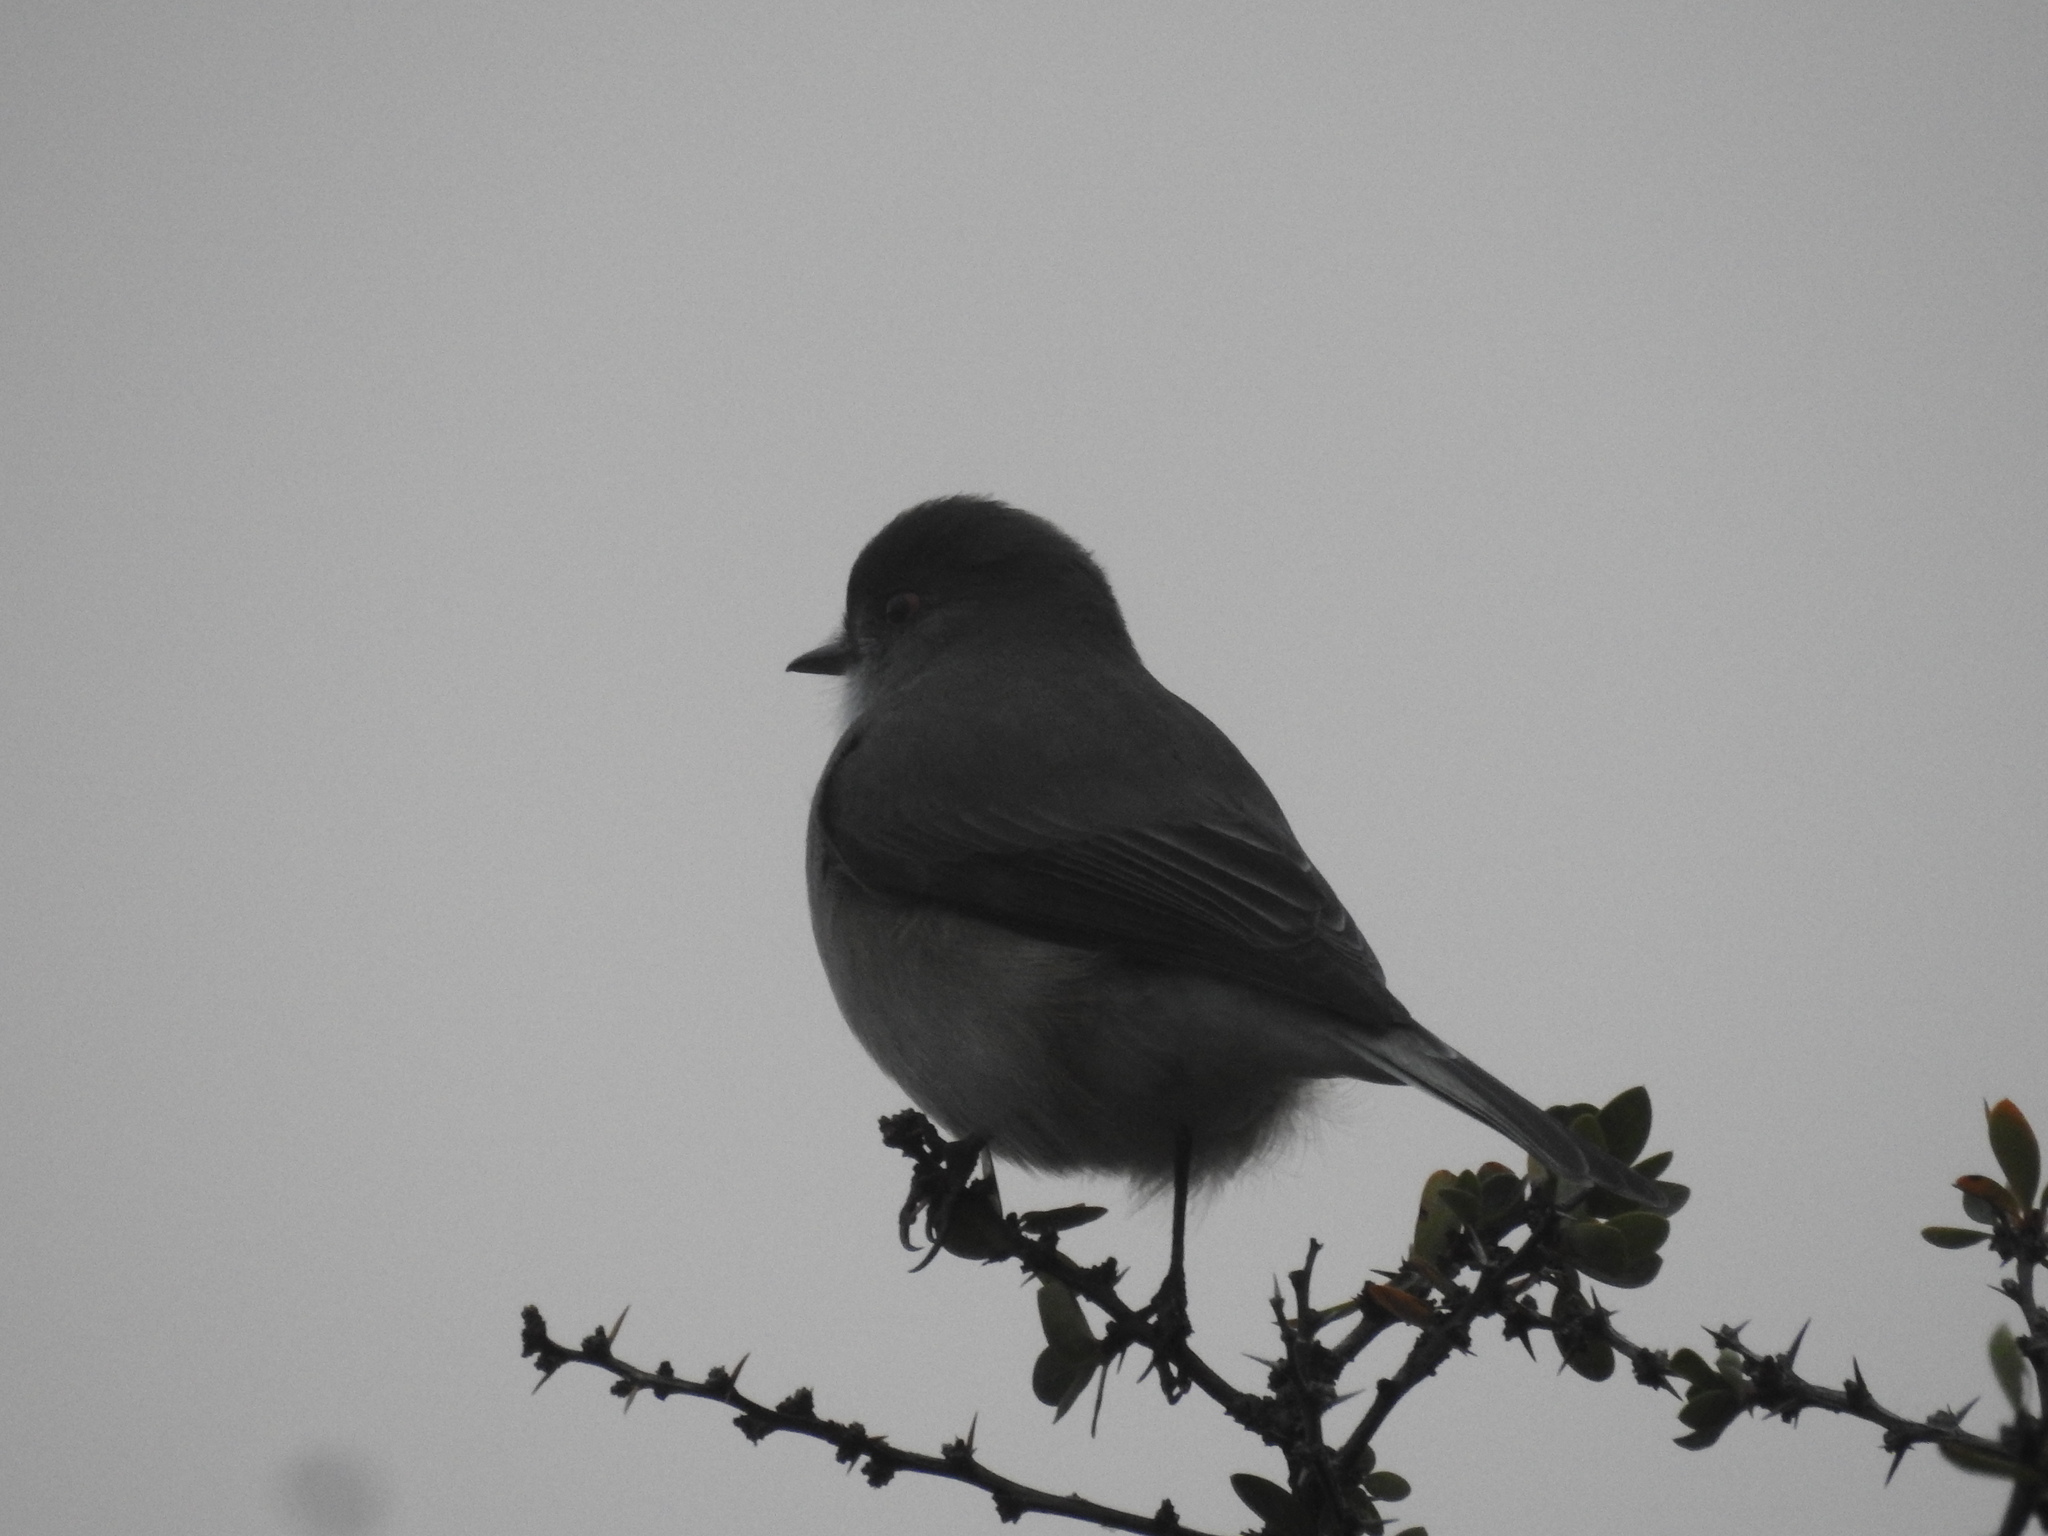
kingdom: Animalia
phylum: Chordata
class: Aves
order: Passeriformes
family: Tyrannidae
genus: Xolmis
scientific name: Xolmis pyrope
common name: Fire-eyed diucon
